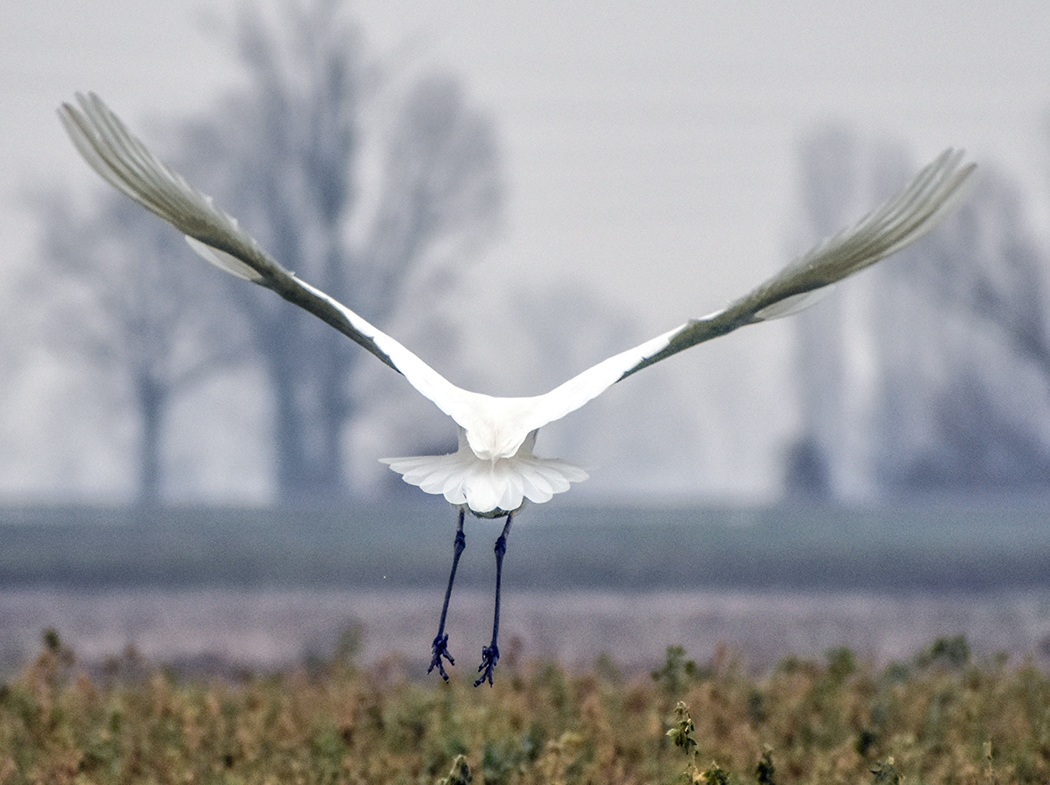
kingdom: Animalia
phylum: Chordata
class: Aves
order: Pelecaniformes
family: Ardeidae
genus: Ardea
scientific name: Ardea alba
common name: Great egret
